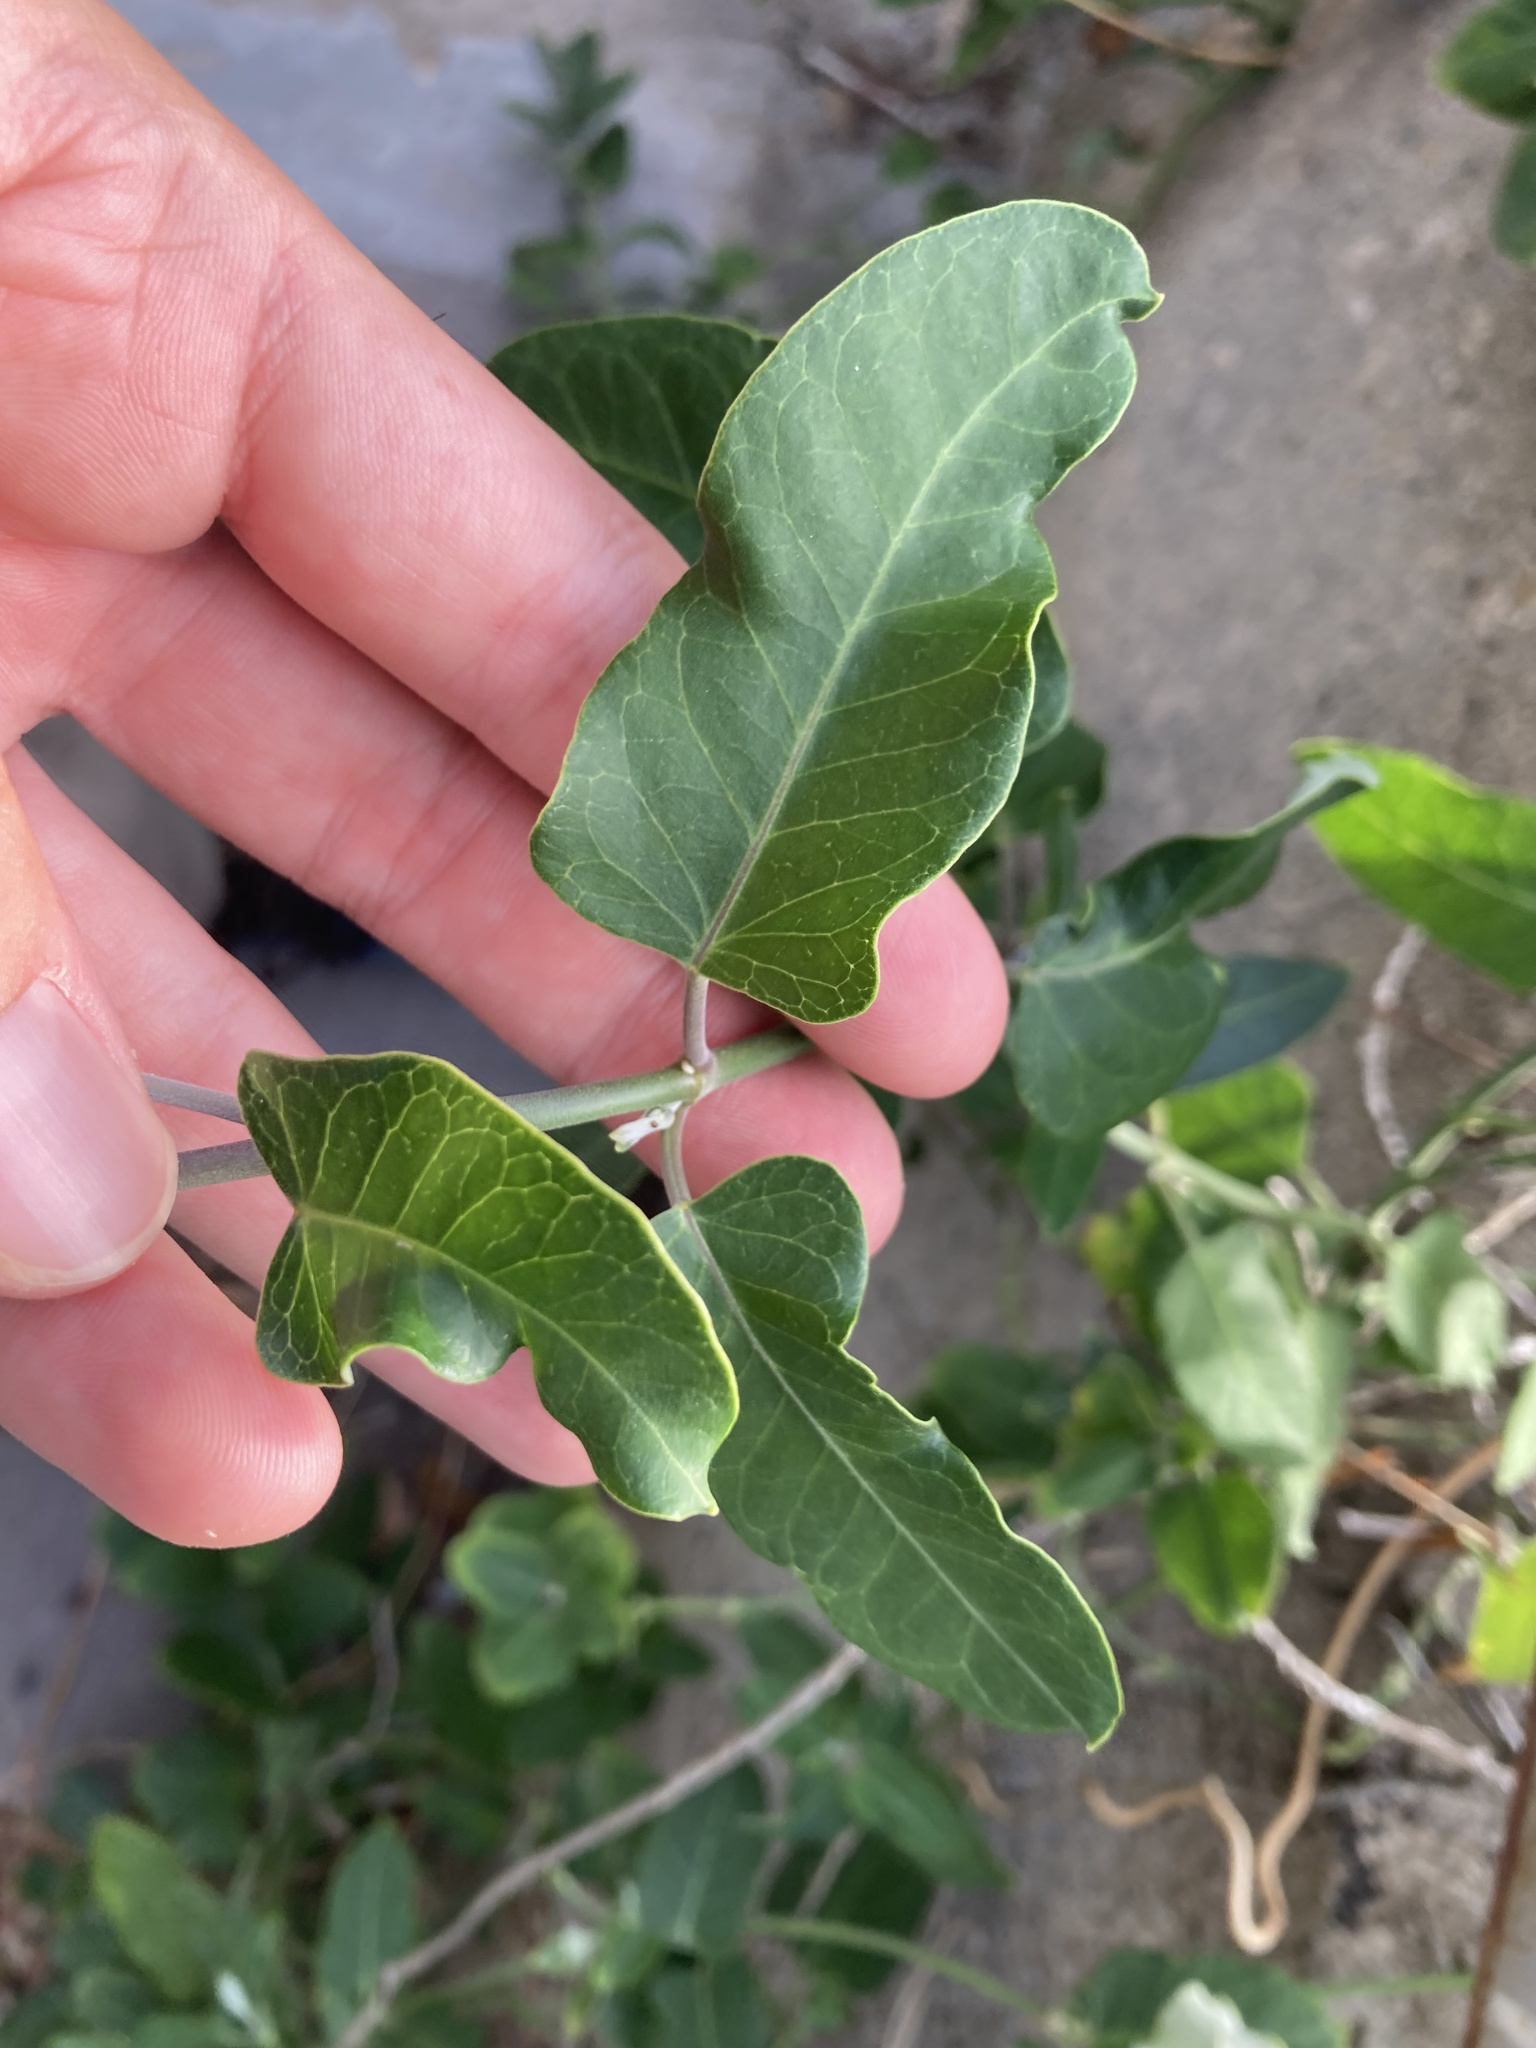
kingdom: Plantae
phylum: Tracheophyta
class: Magnoliopsida
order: Gentianales
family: Apocynaceae
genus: Araujia
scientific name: Araujia sericifera
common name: White bladderflower
